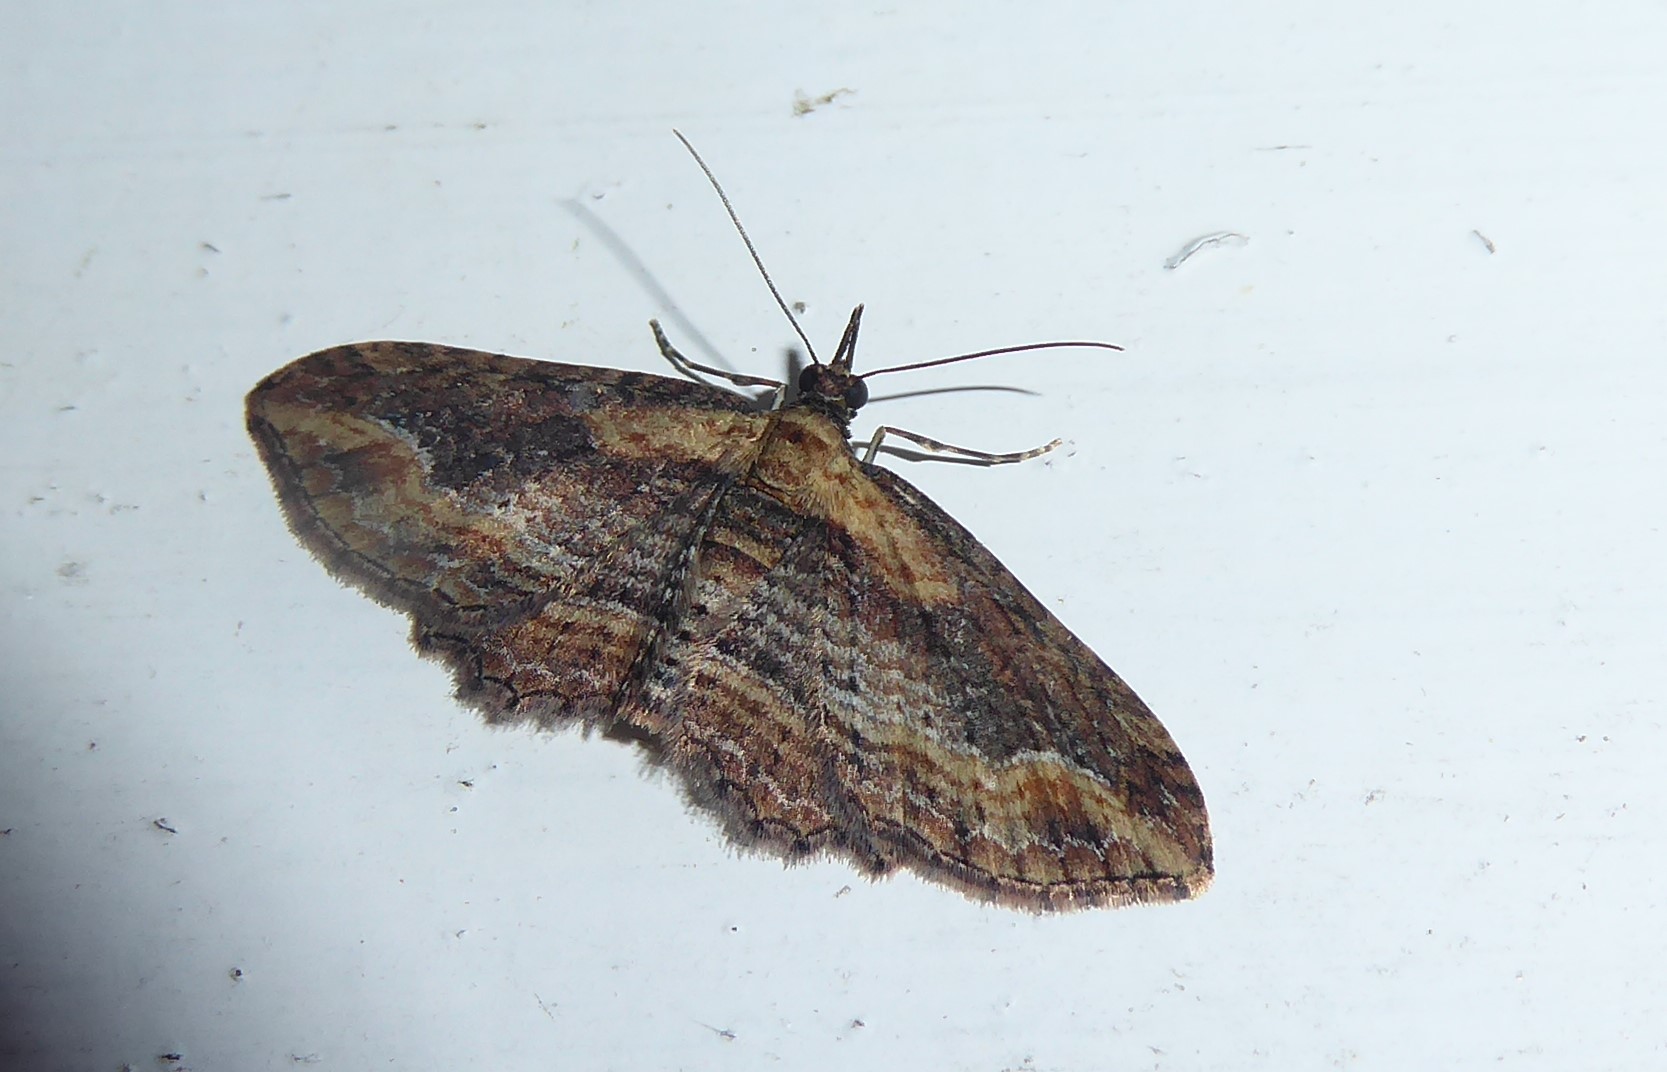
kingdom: Animalia
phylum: Arthropoda
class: Insecta
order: Lepidoptera
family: Geometridae
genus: Chloroclystis
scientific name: Chloroclystis filata
